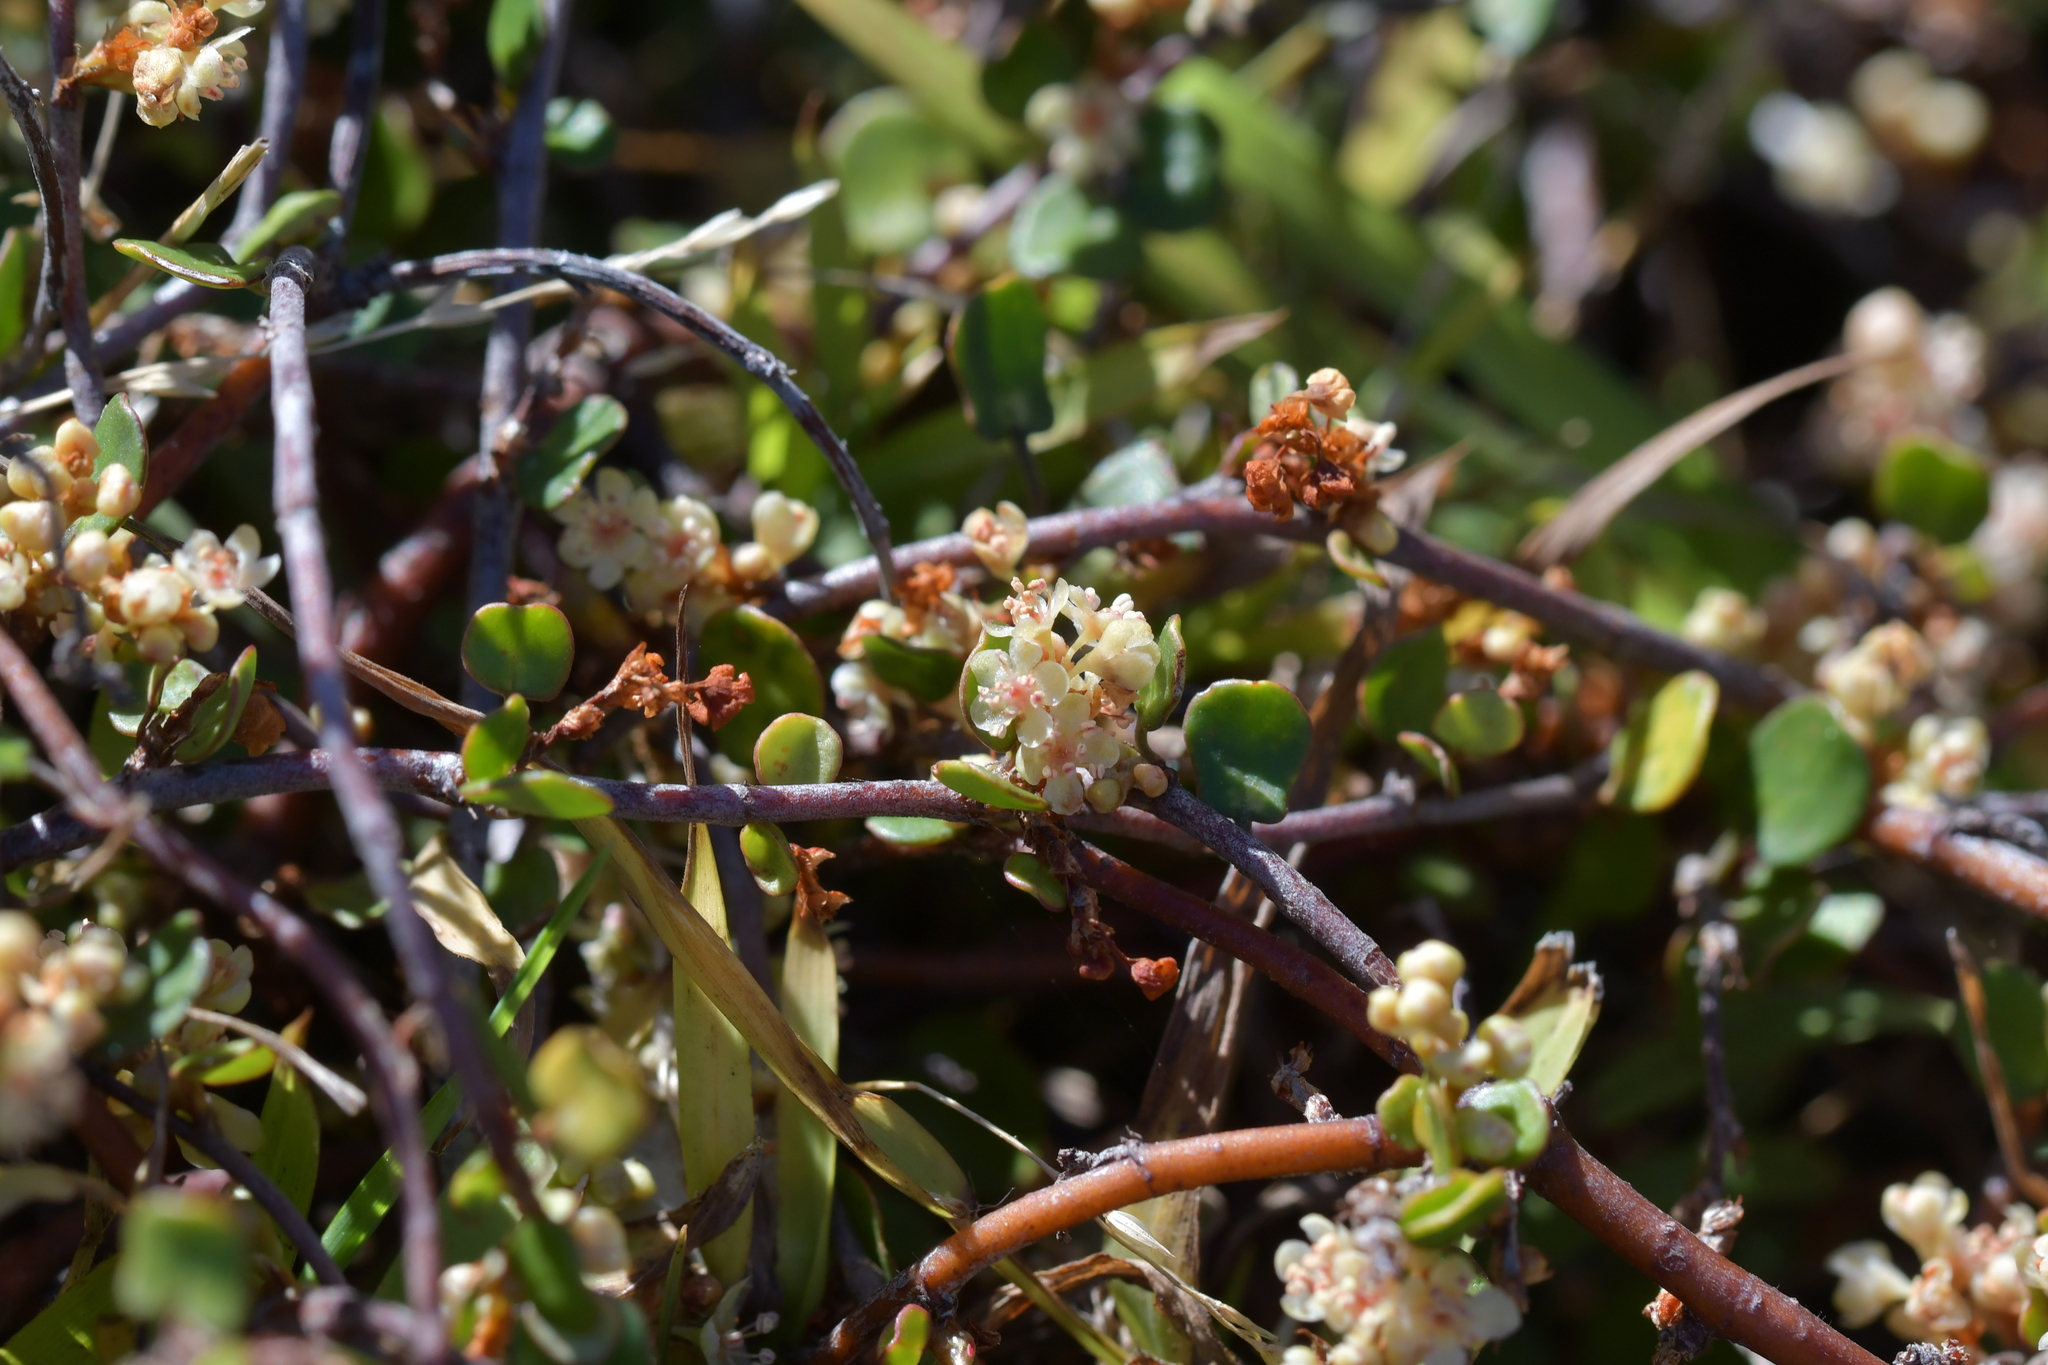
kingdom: Plantae
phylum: Tracheophyta
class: Magnoliopsida
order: Caryophyllales
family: Polygonaceae
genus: Muehlenbeckia
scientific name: Muehlenbeckia complexa
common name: Wireplant
